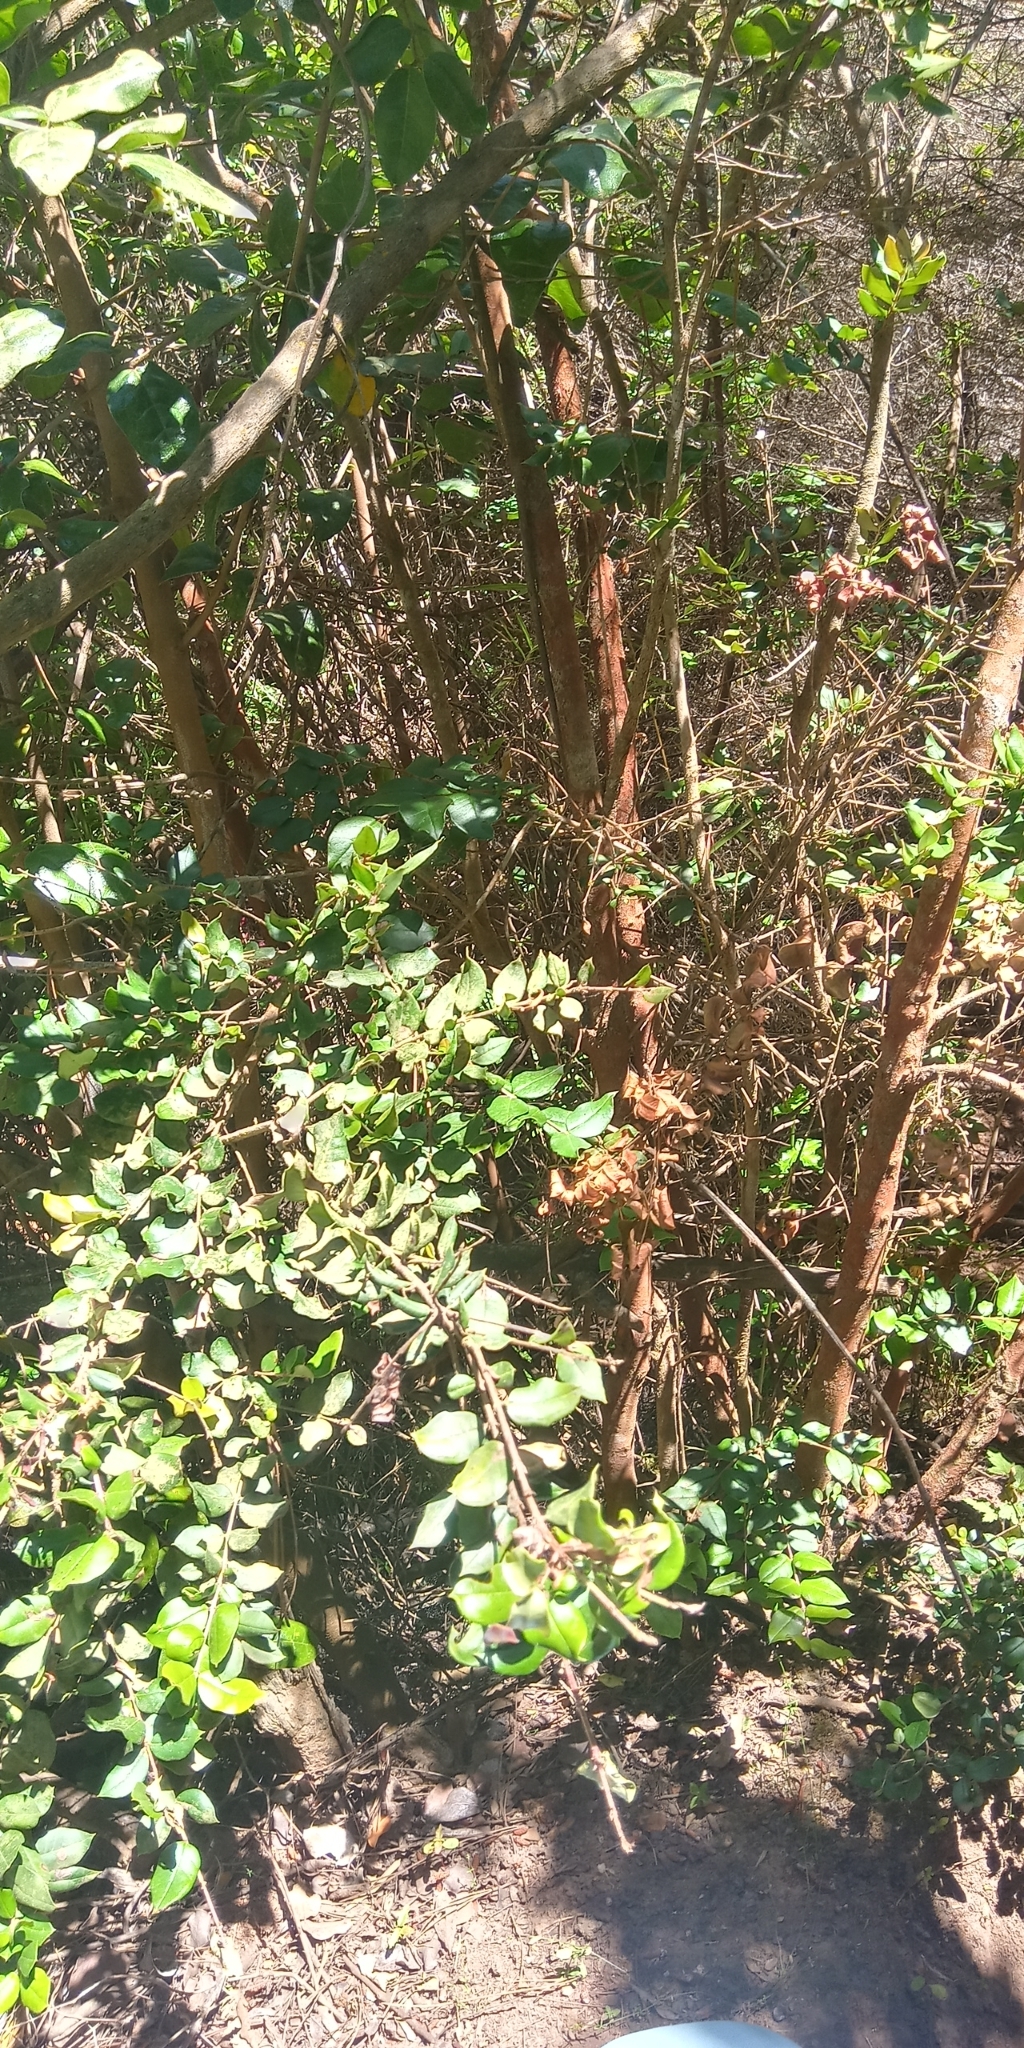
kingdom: Plantae
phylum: Tracheophyta
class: Magnoliopsida
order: Myrtales
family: Myrtaceae
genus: Luma
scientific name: Luma apiculata
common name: Chilean myrtle
